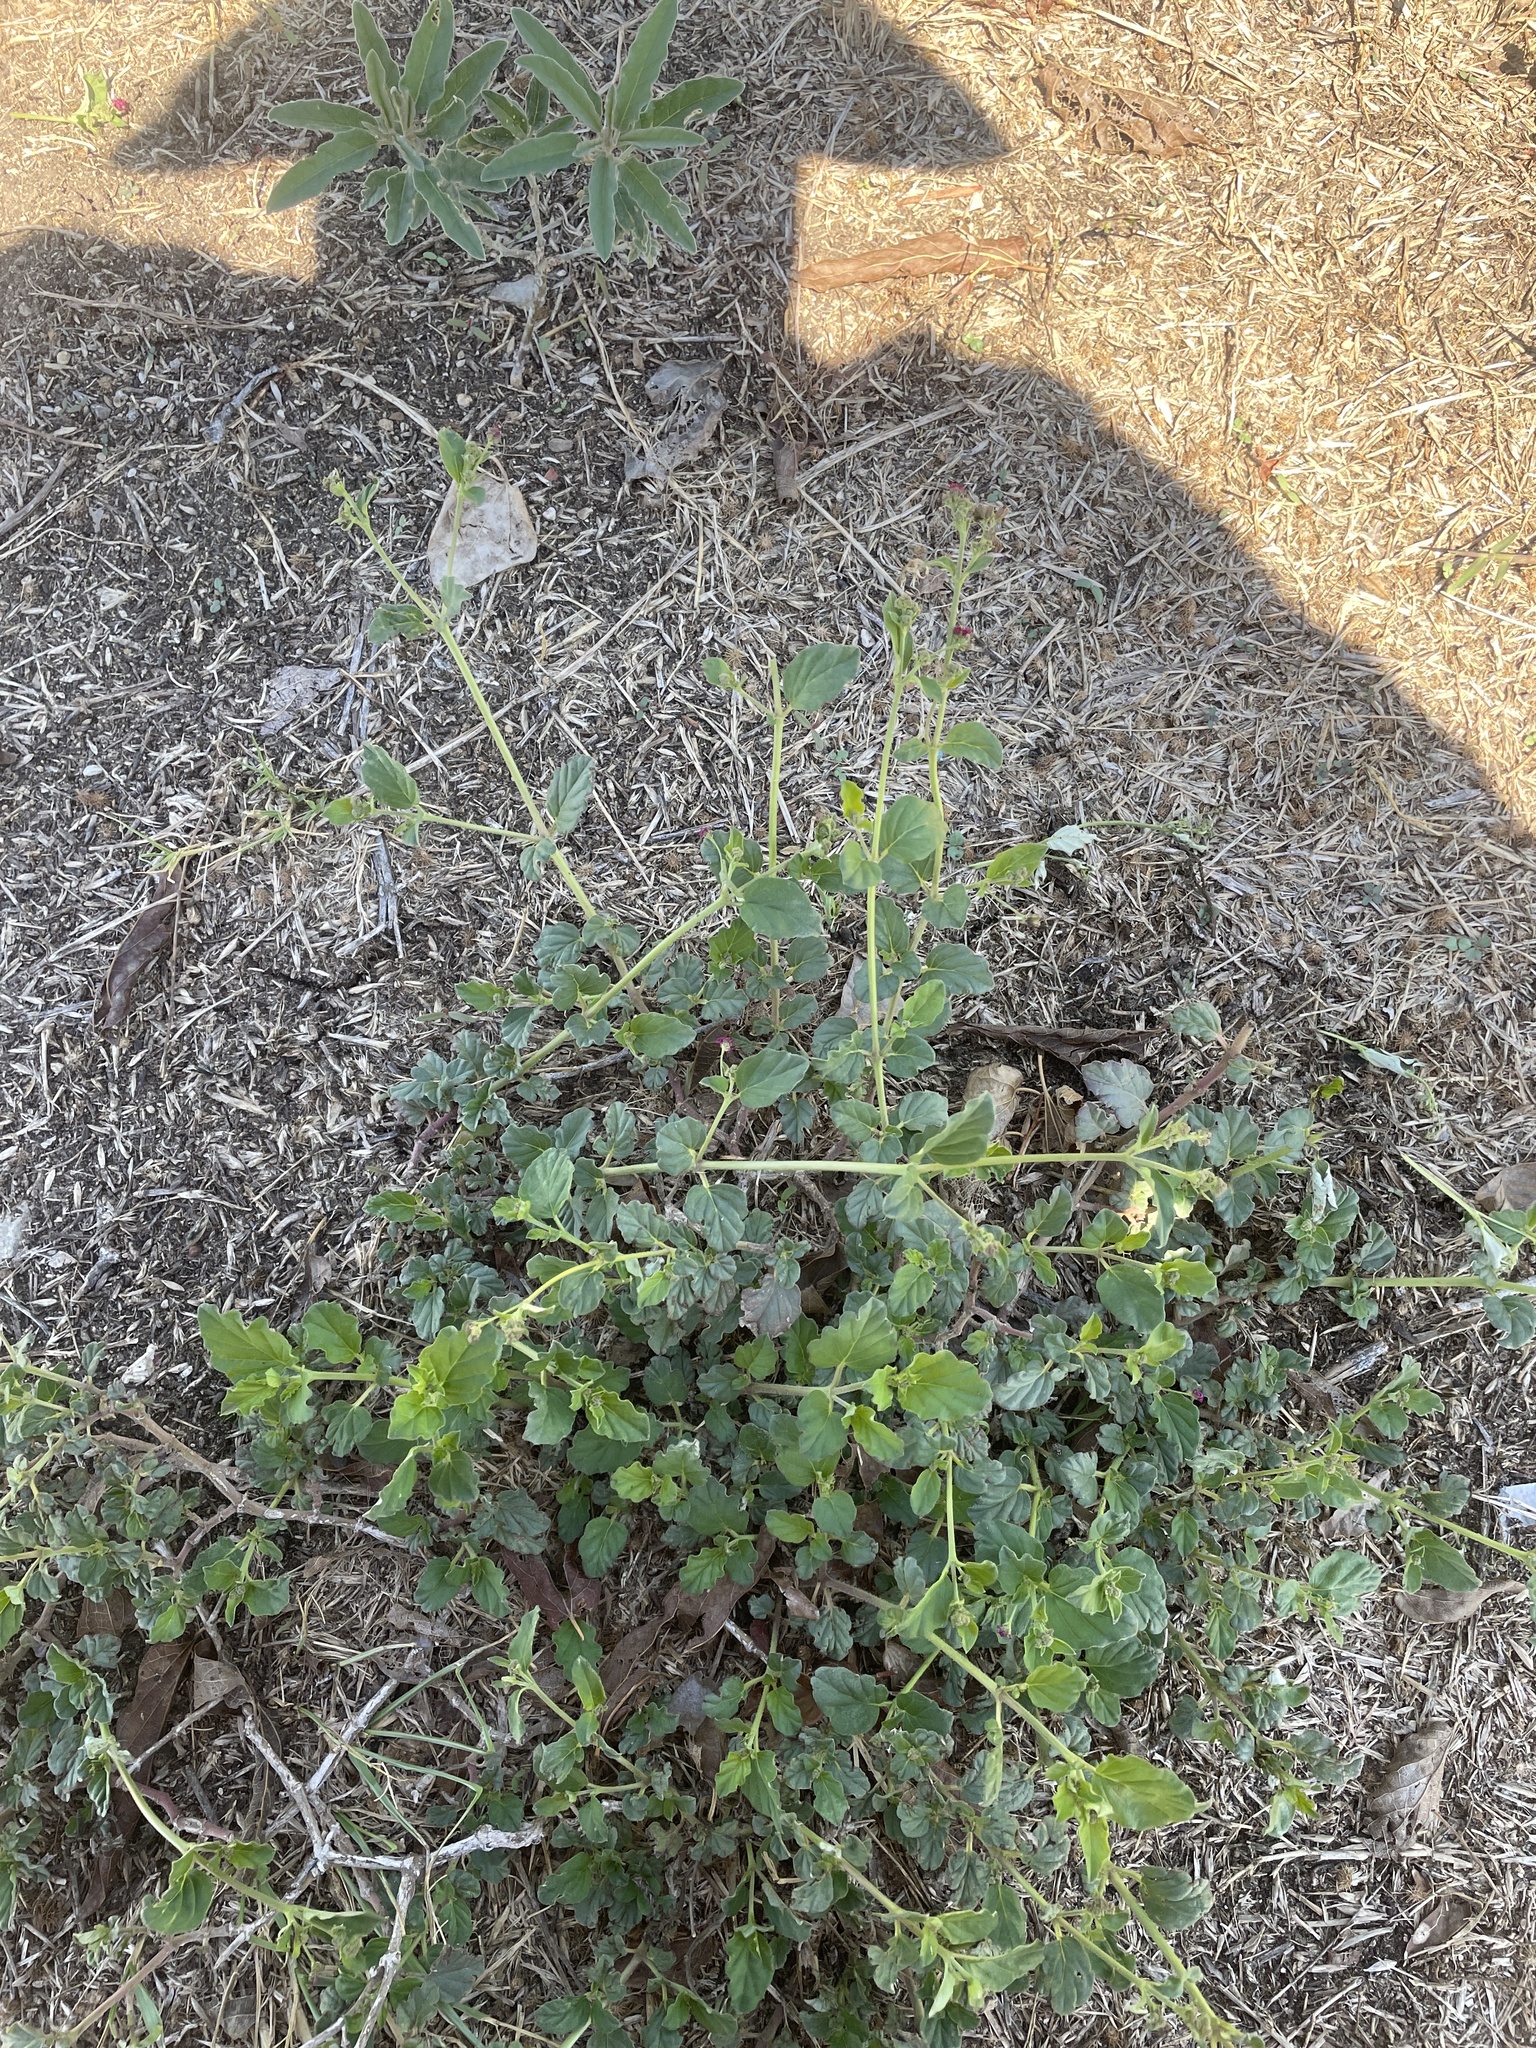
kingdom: Plantae
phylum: Tracheophyta
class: Magnoliopsida
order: Caryophyllales
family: Nyctaginaceae
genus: Boerhavia
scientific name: Boerhavia coccinea
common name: Scarlet spiderling
